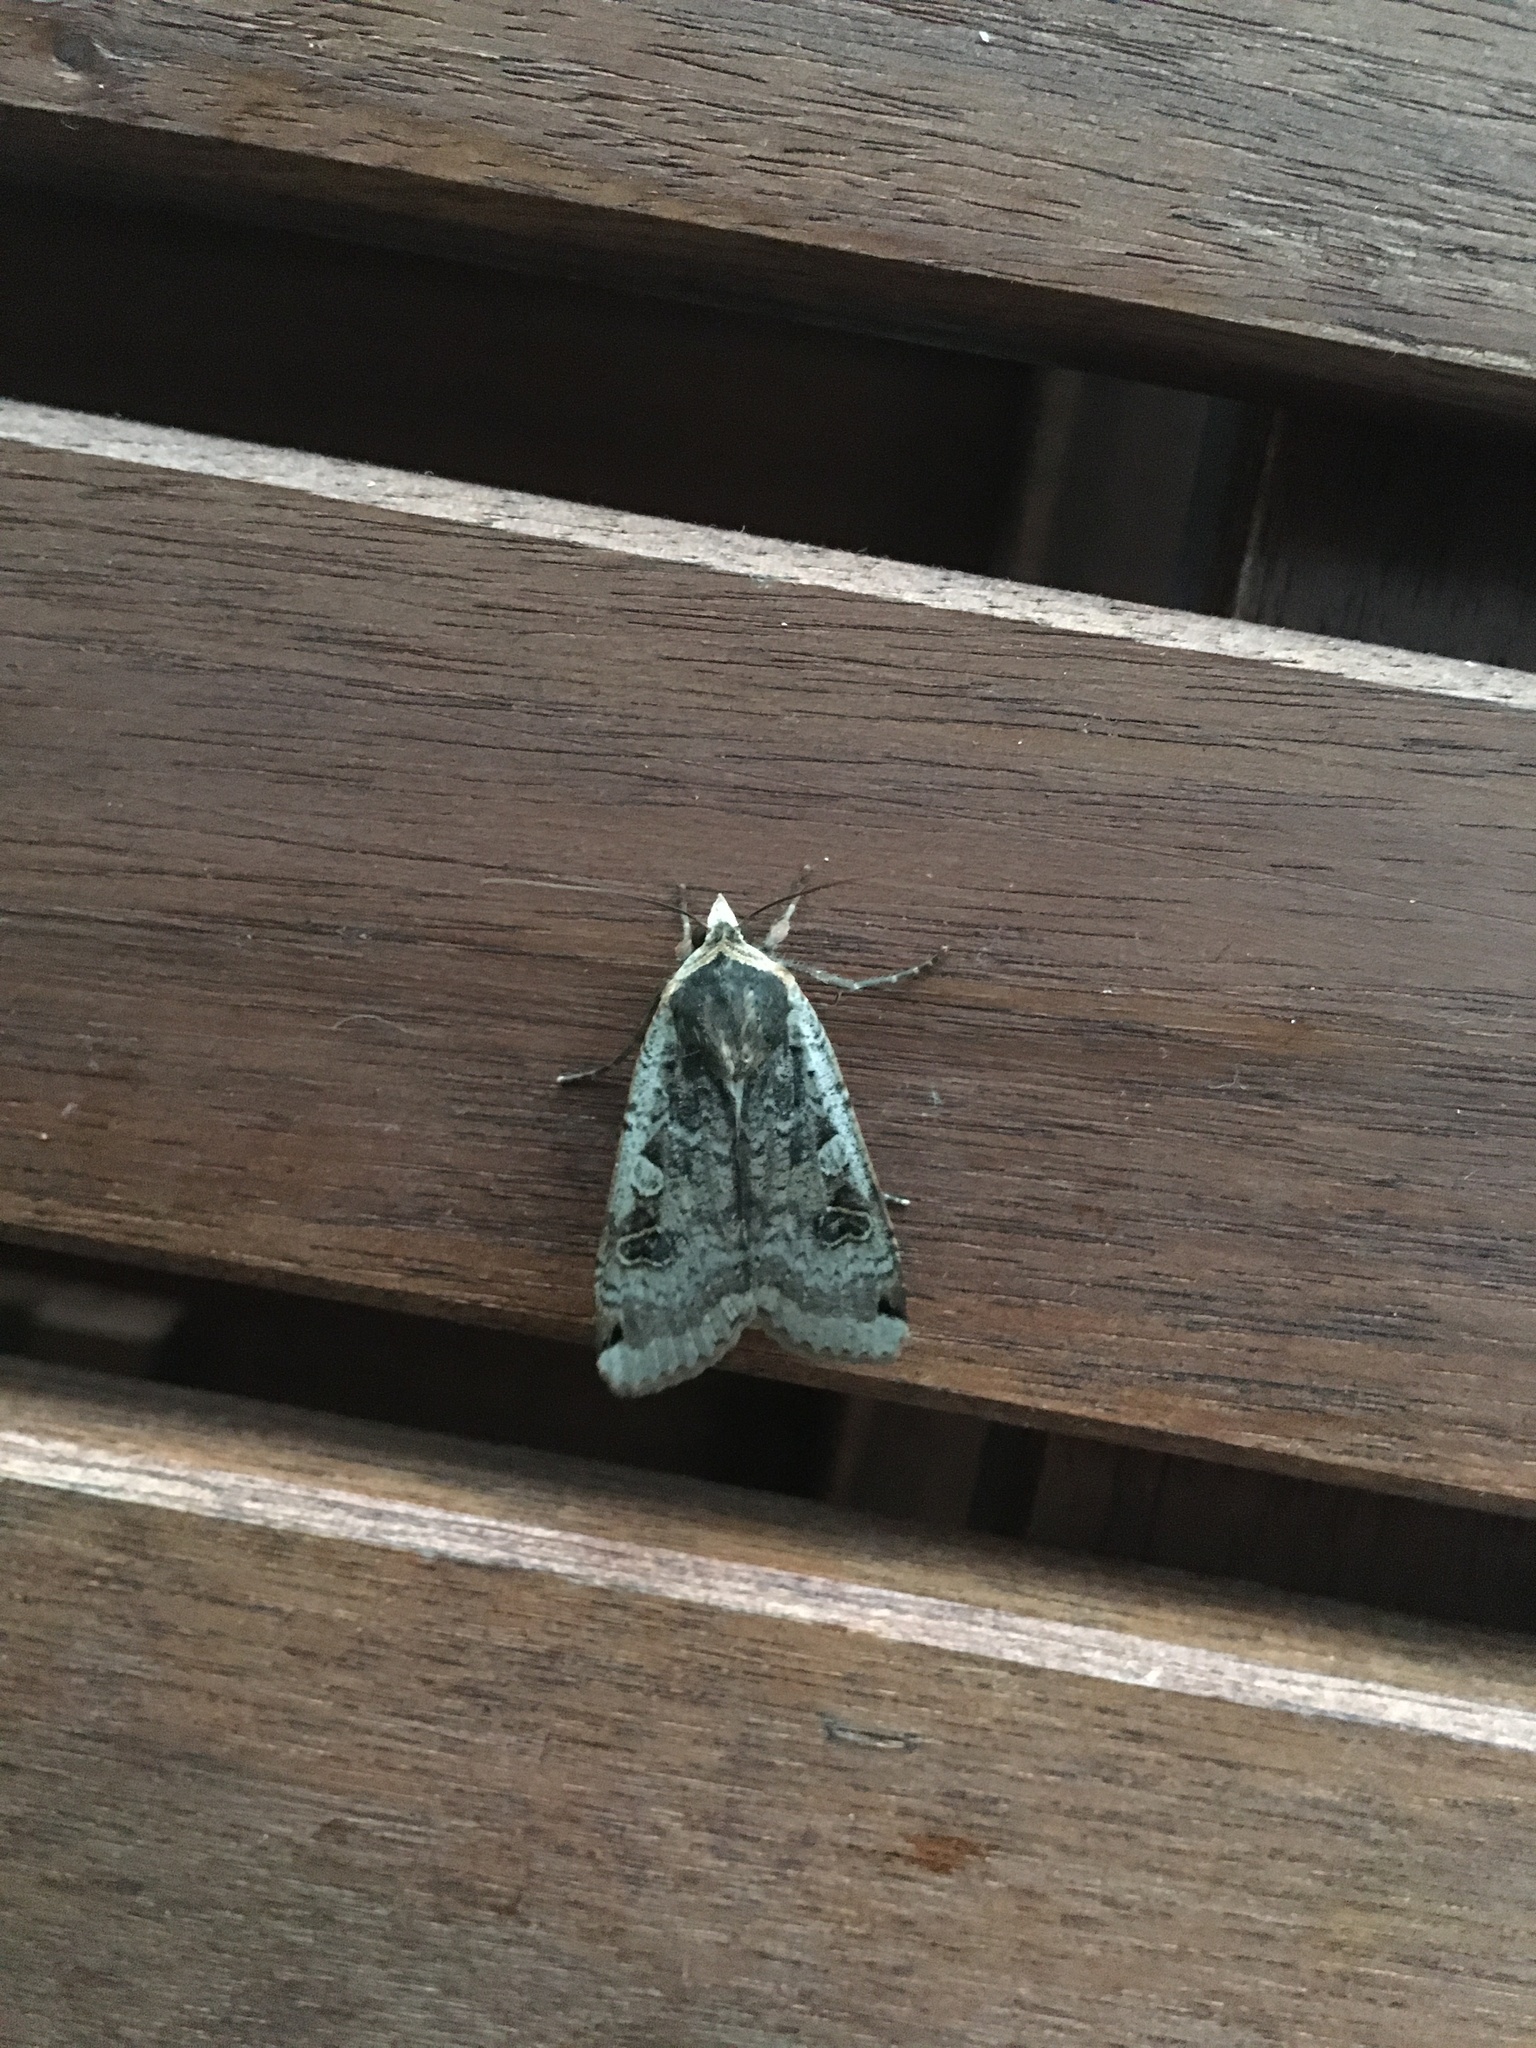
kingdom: Animalia
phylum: Arthropoda
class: Insecta
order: Lepidoptera
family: Noctuidae
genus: Noctua
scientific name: Noctua pronuba
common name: Large yellow underwing
